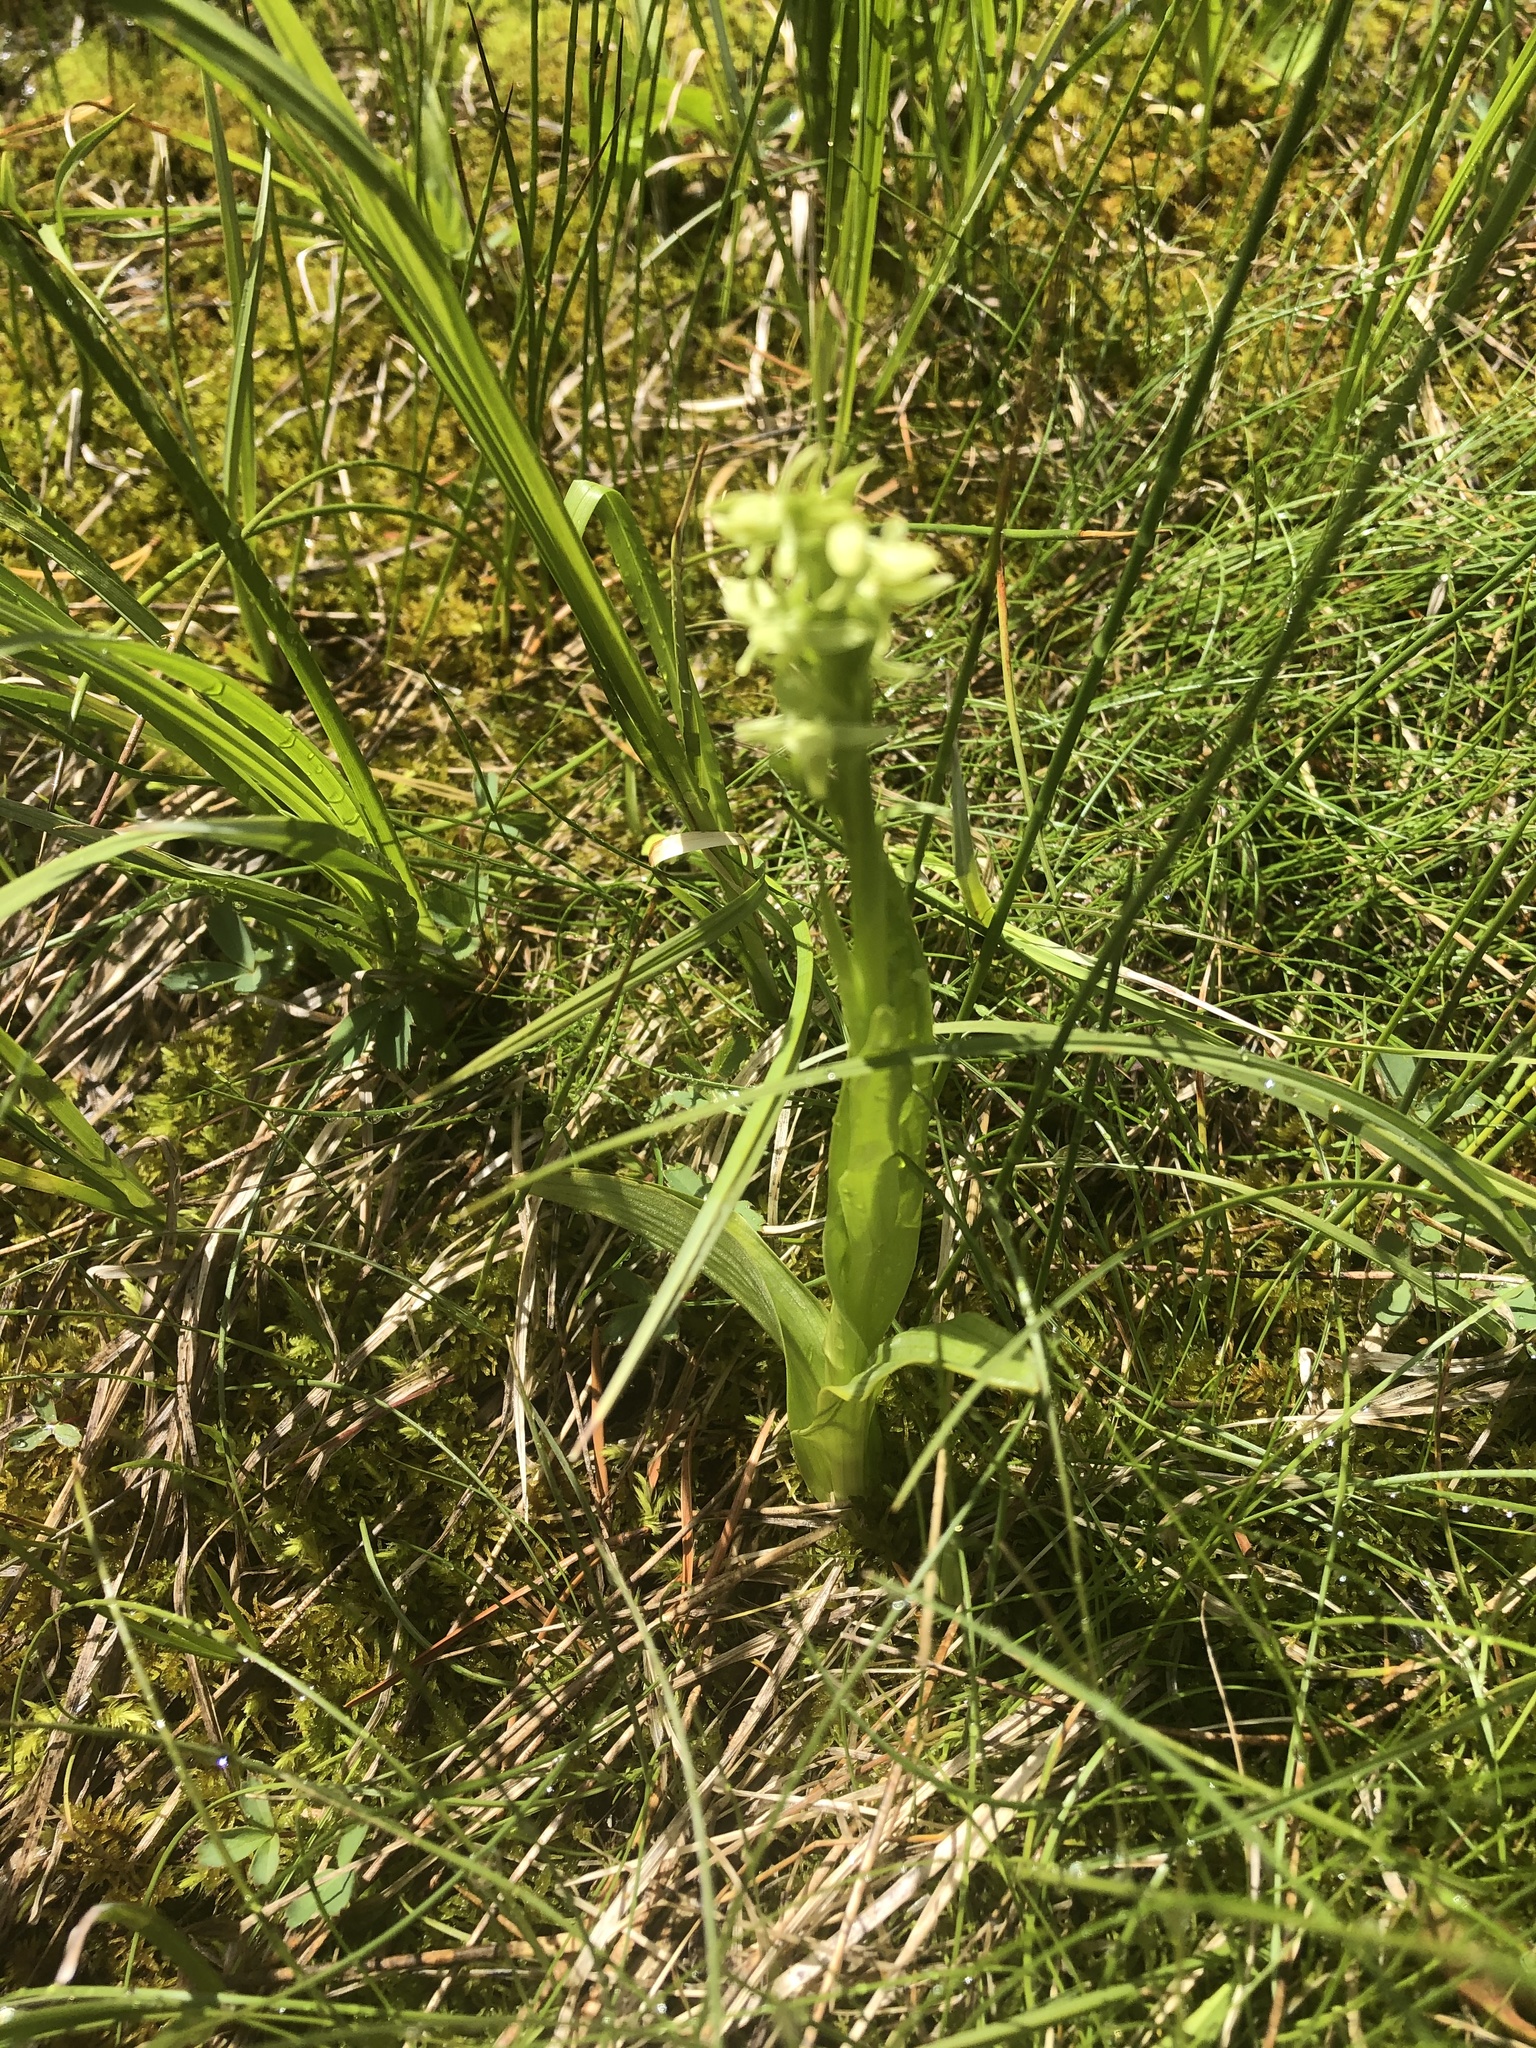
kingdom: Plantae
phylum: Tracheophyta
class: Liliopsida
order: Asparagales
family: Orchidaceae
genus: Platanthera
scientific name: Platanthera huronensis
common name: Fragrant green orchid
